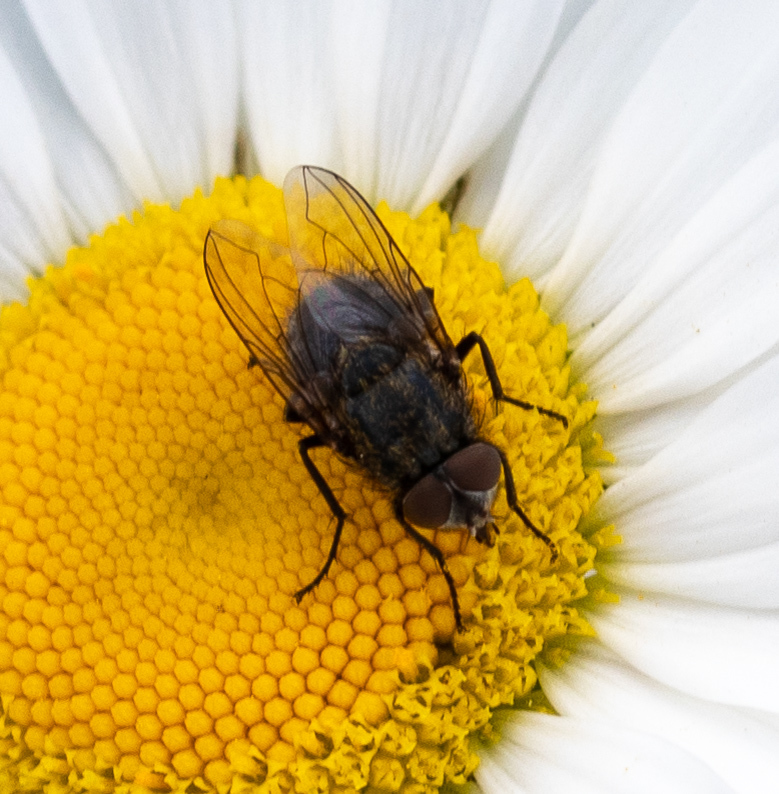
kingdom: Animalia
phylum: Arthropoda
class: Insecta
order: Diptera
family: Polleniidae
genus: Pollenia
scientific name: Pollenia
